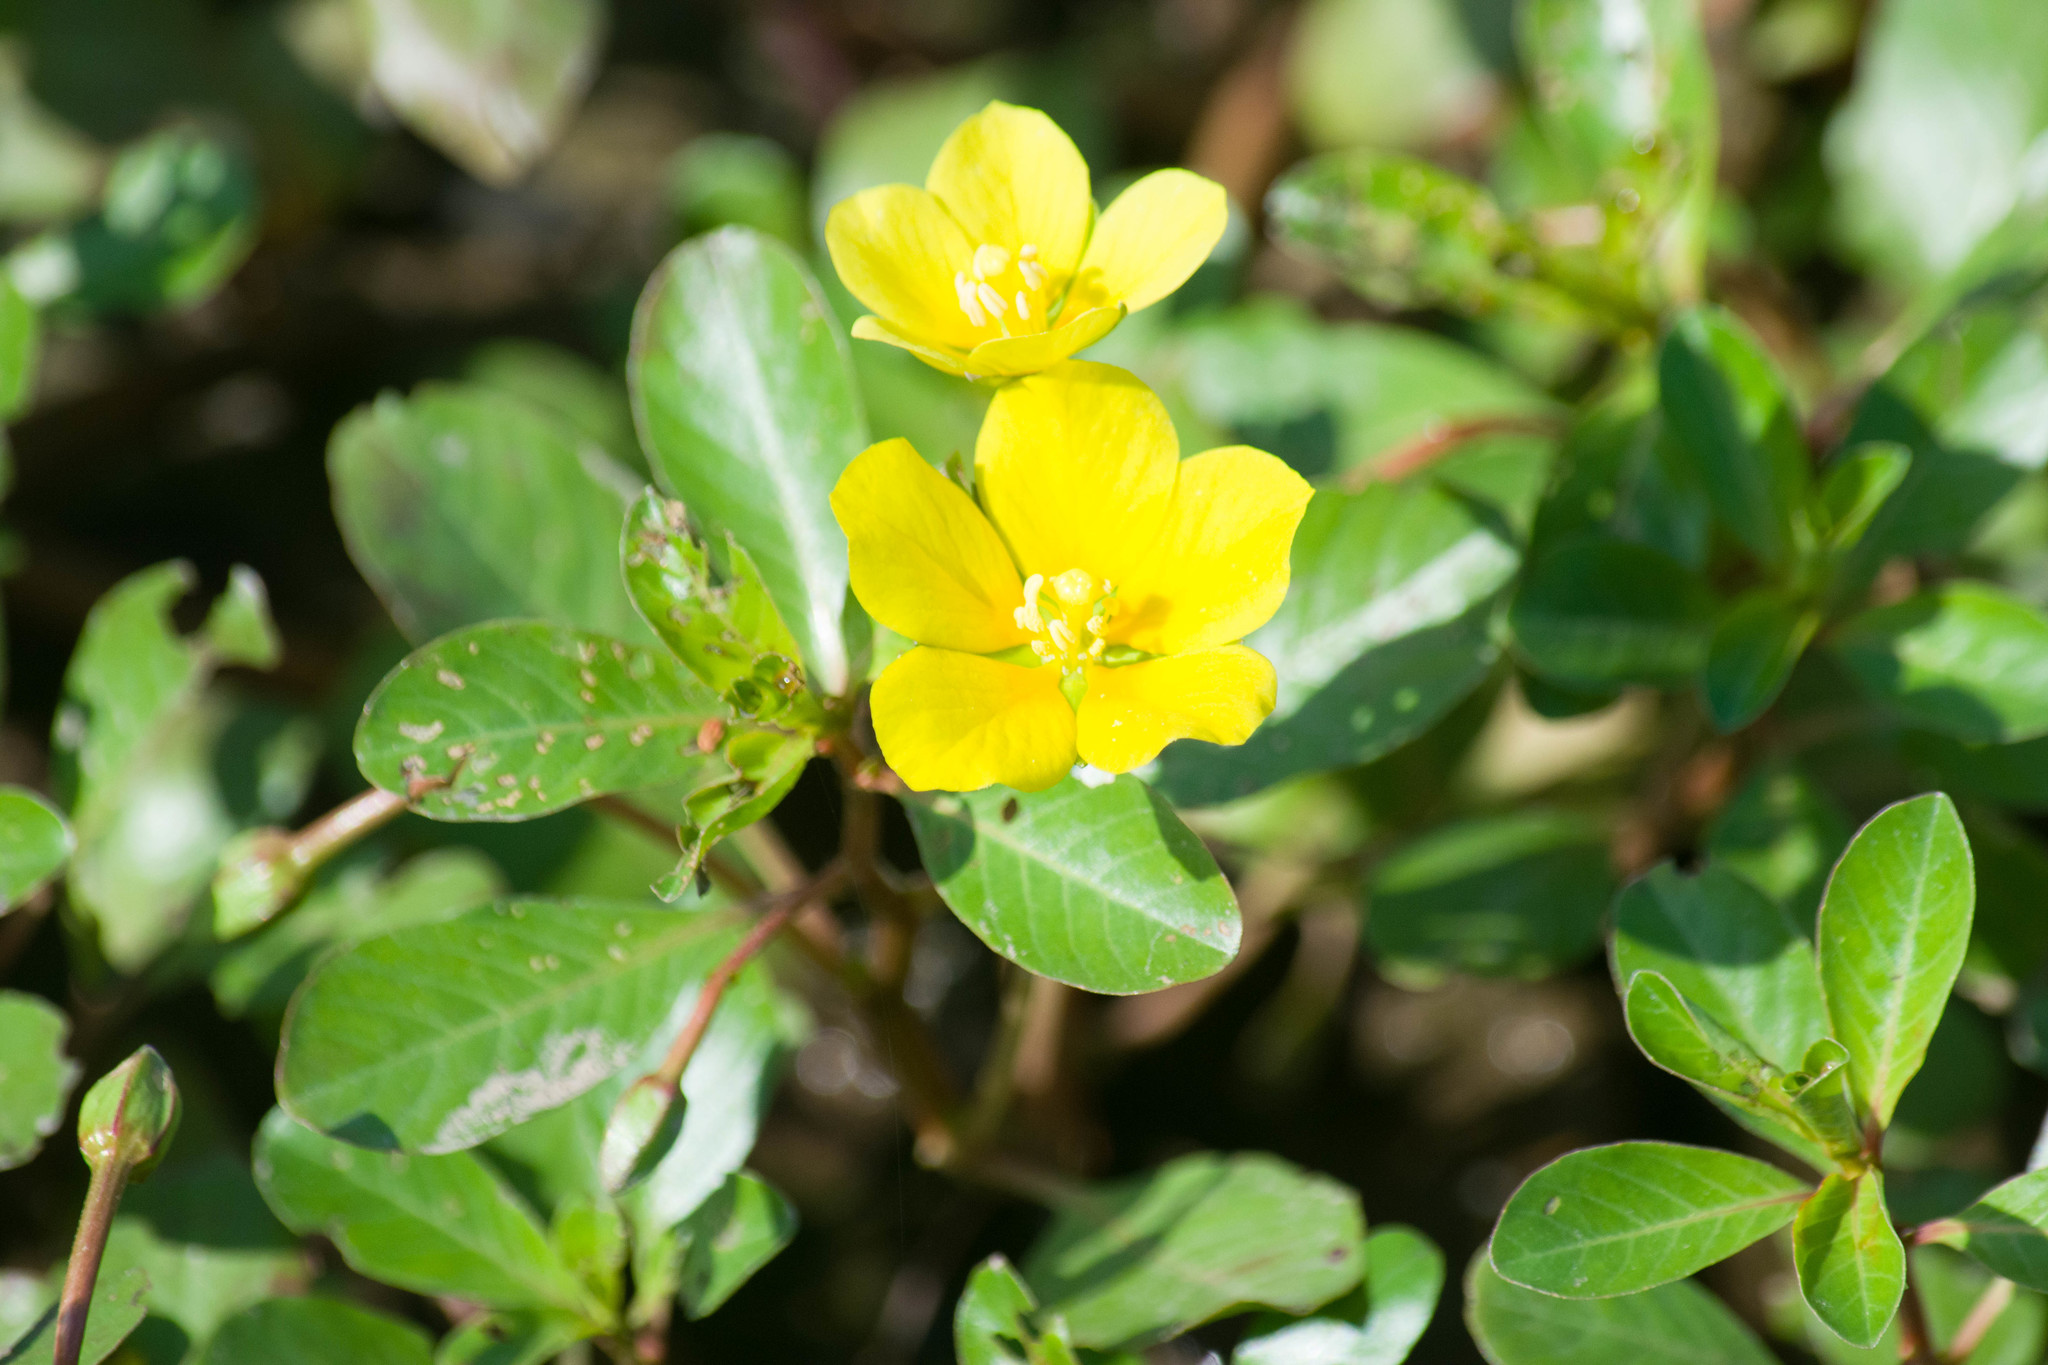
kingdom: Plantae
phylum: Tracheophyta
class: Magnoliopsida
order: Myrtales
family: Onagraceae
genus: Ludwigia
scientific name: Ludwigia peploides
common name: Floating primrose-willow
